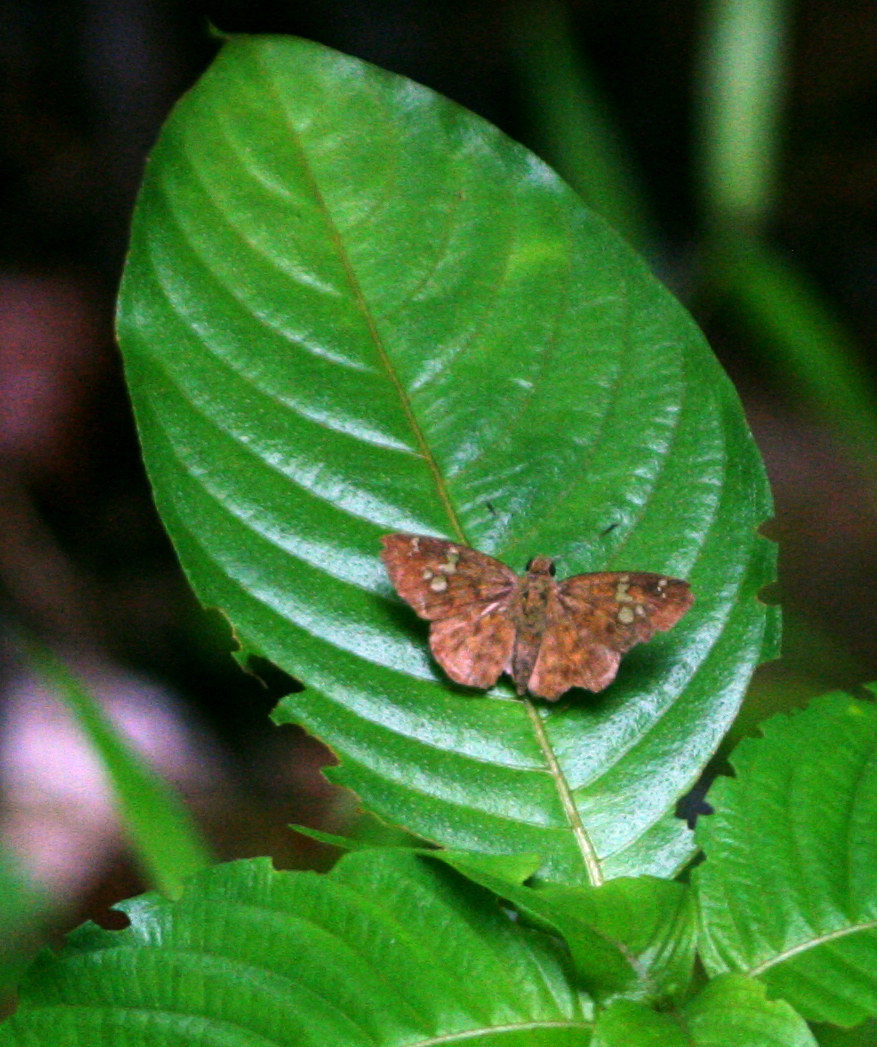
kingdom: Animalia
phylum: Arthropoda
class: Insecta
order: Lepidoptera
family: Hesperiidae
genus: Pseudocoladenia
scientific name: Pseudocoladenia dan
